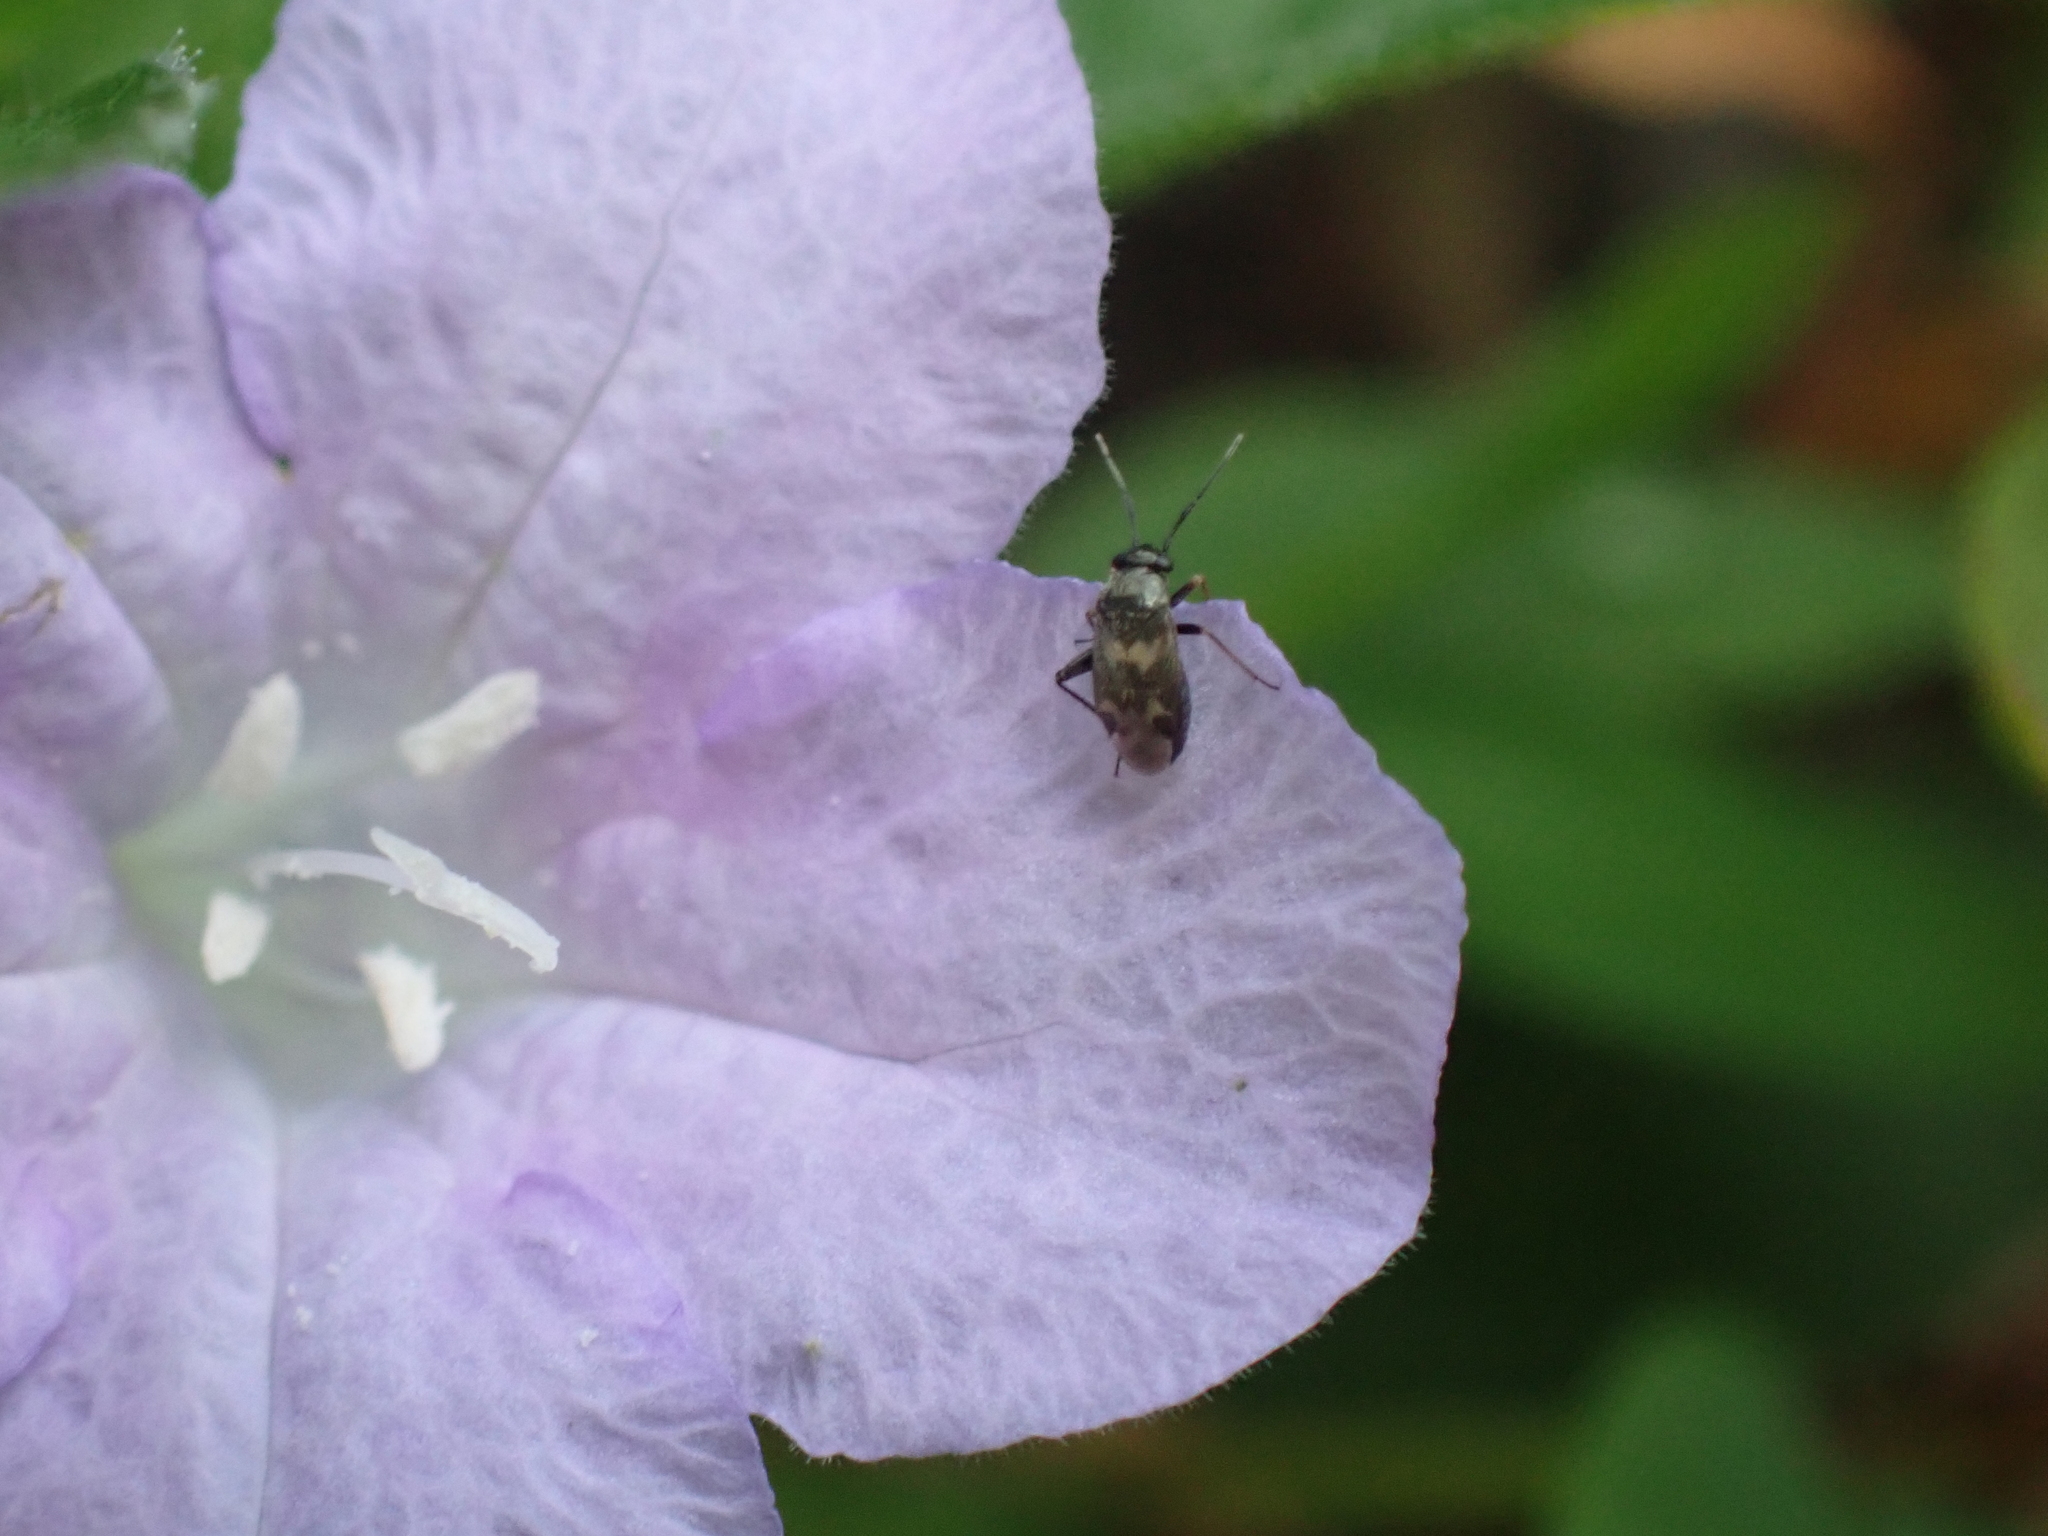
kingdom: Animalia
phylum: Arthropoda
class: Insecta
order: Hemiptera
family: Miridae
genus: Spanagonicus
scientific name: Spanagonicus albofasciatus
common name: Whitemarked fleahopper
